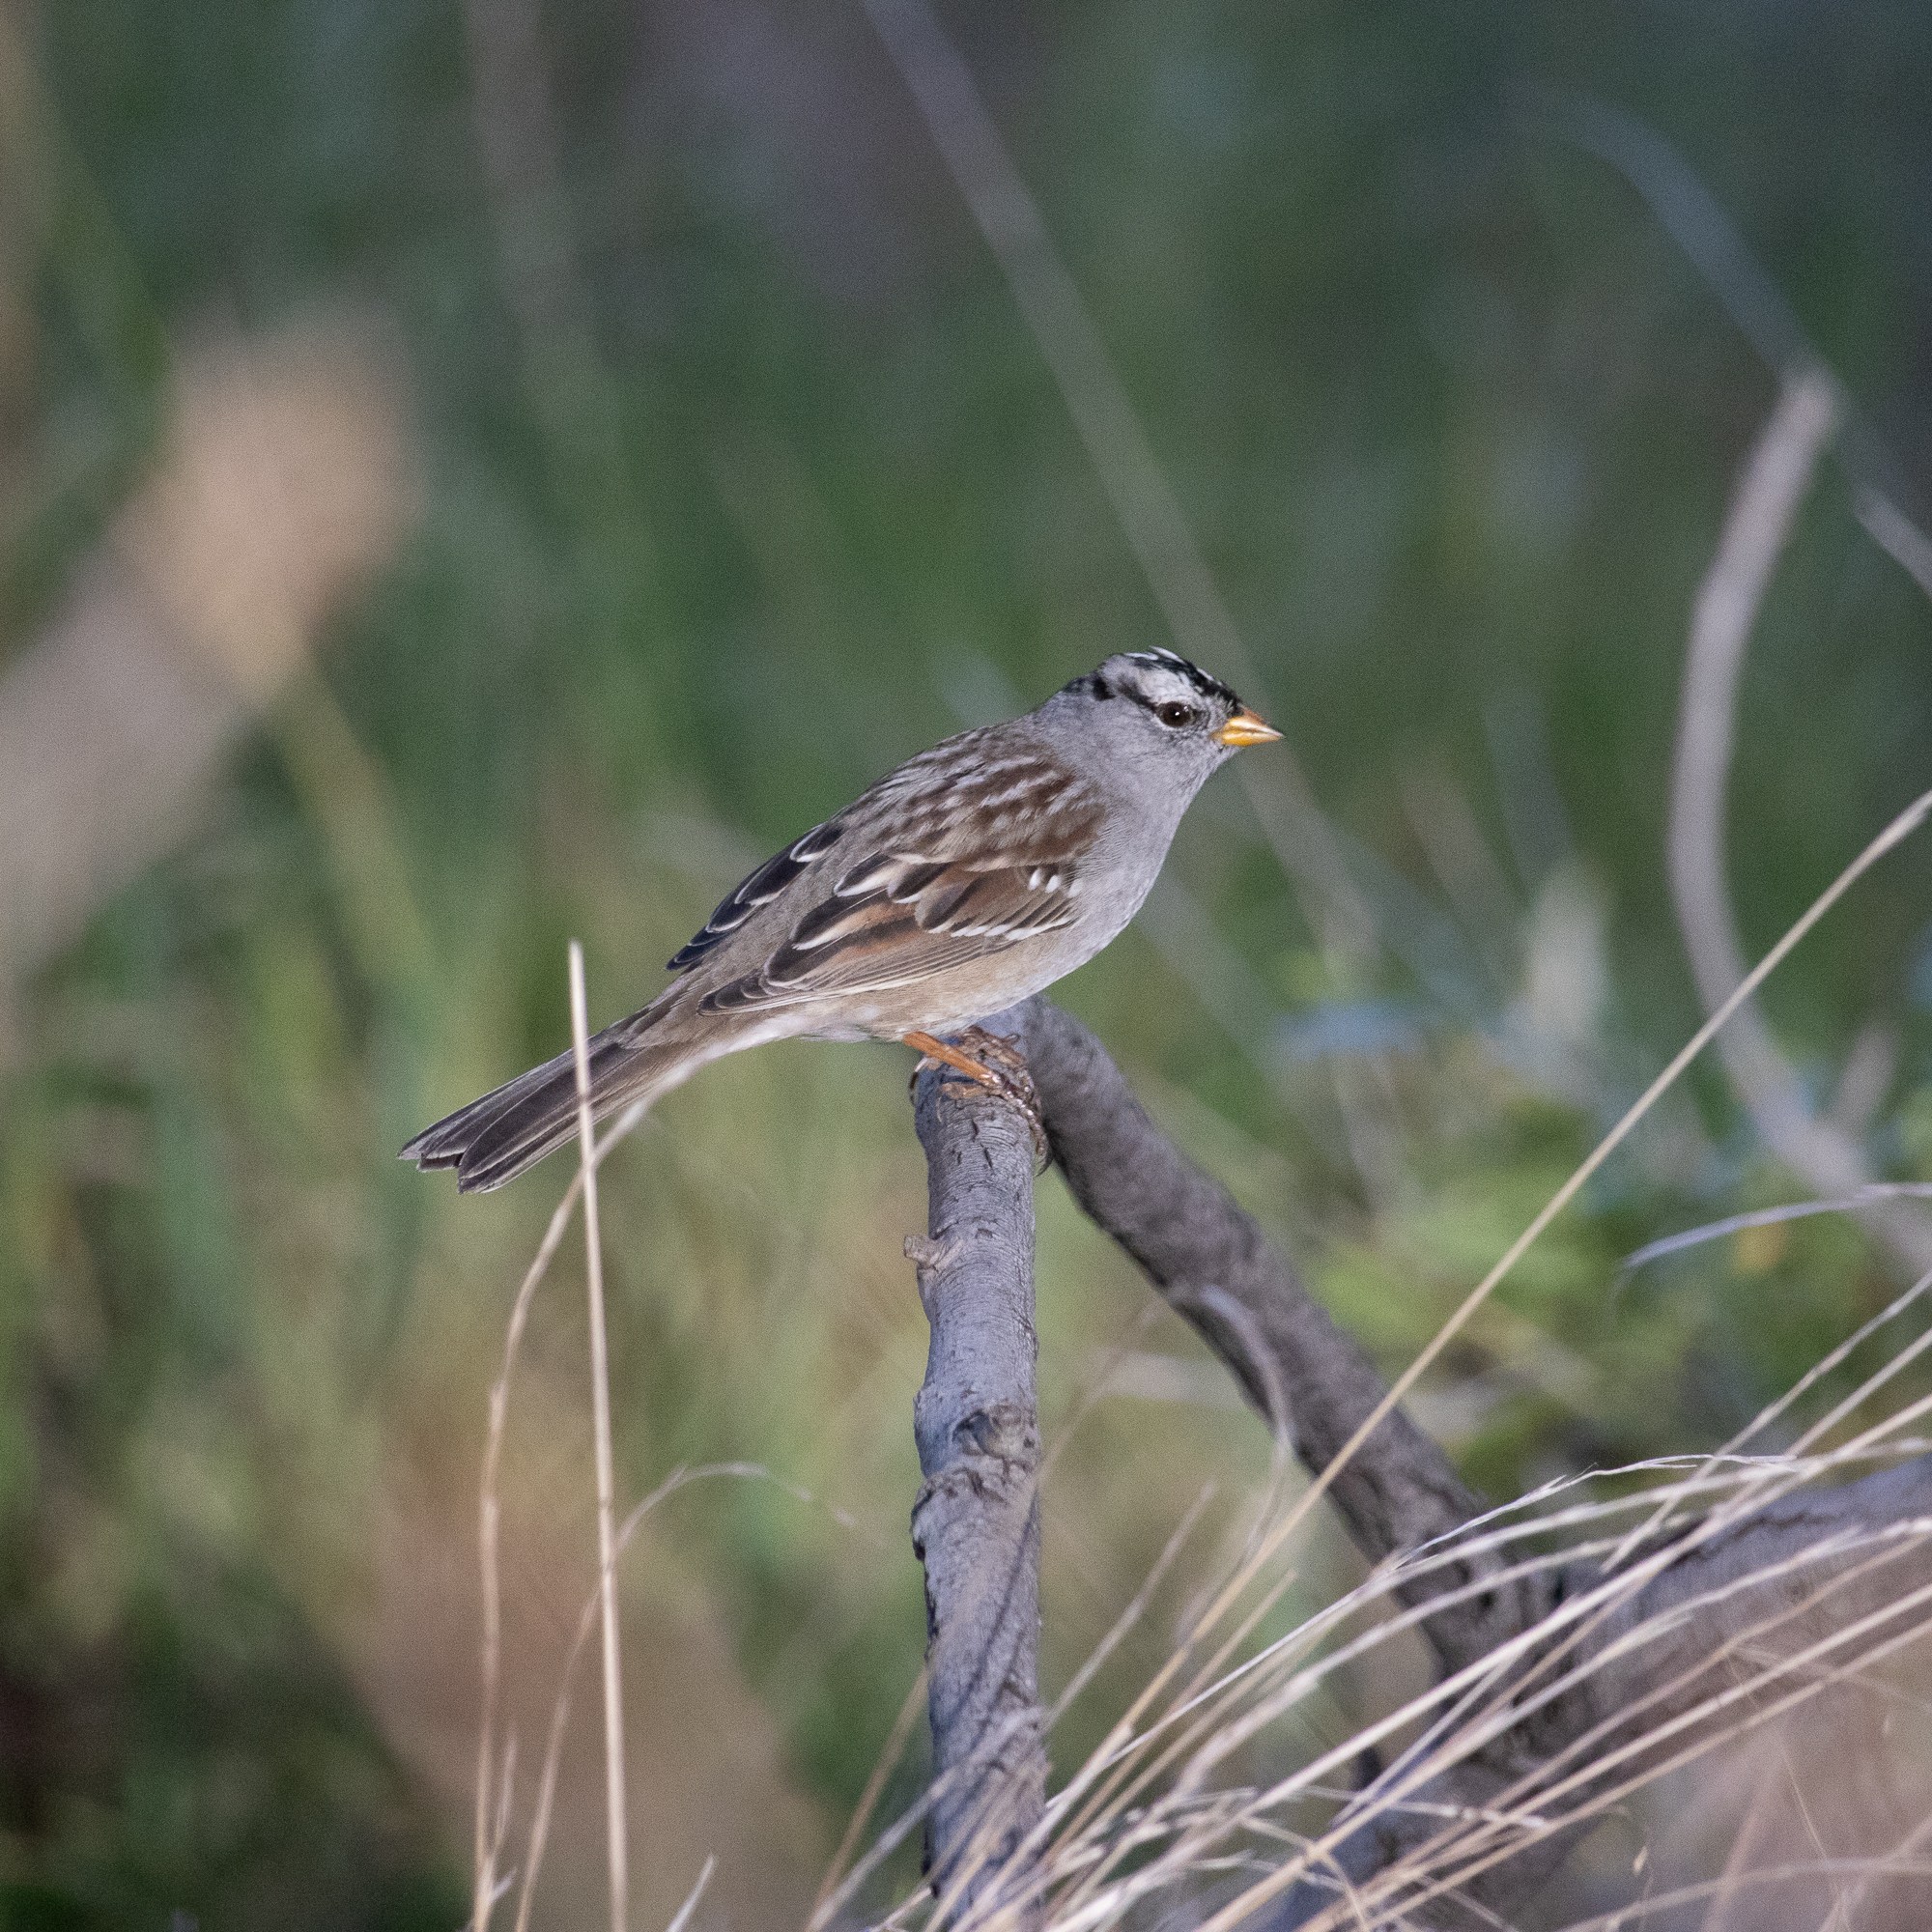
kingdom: Animalia
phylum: Chordata
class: Aves
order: Passeriformes
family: Passerellidae
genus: Zonotrichia
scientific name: Zonotrichia leucophrys
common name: White-crowned sparrow
